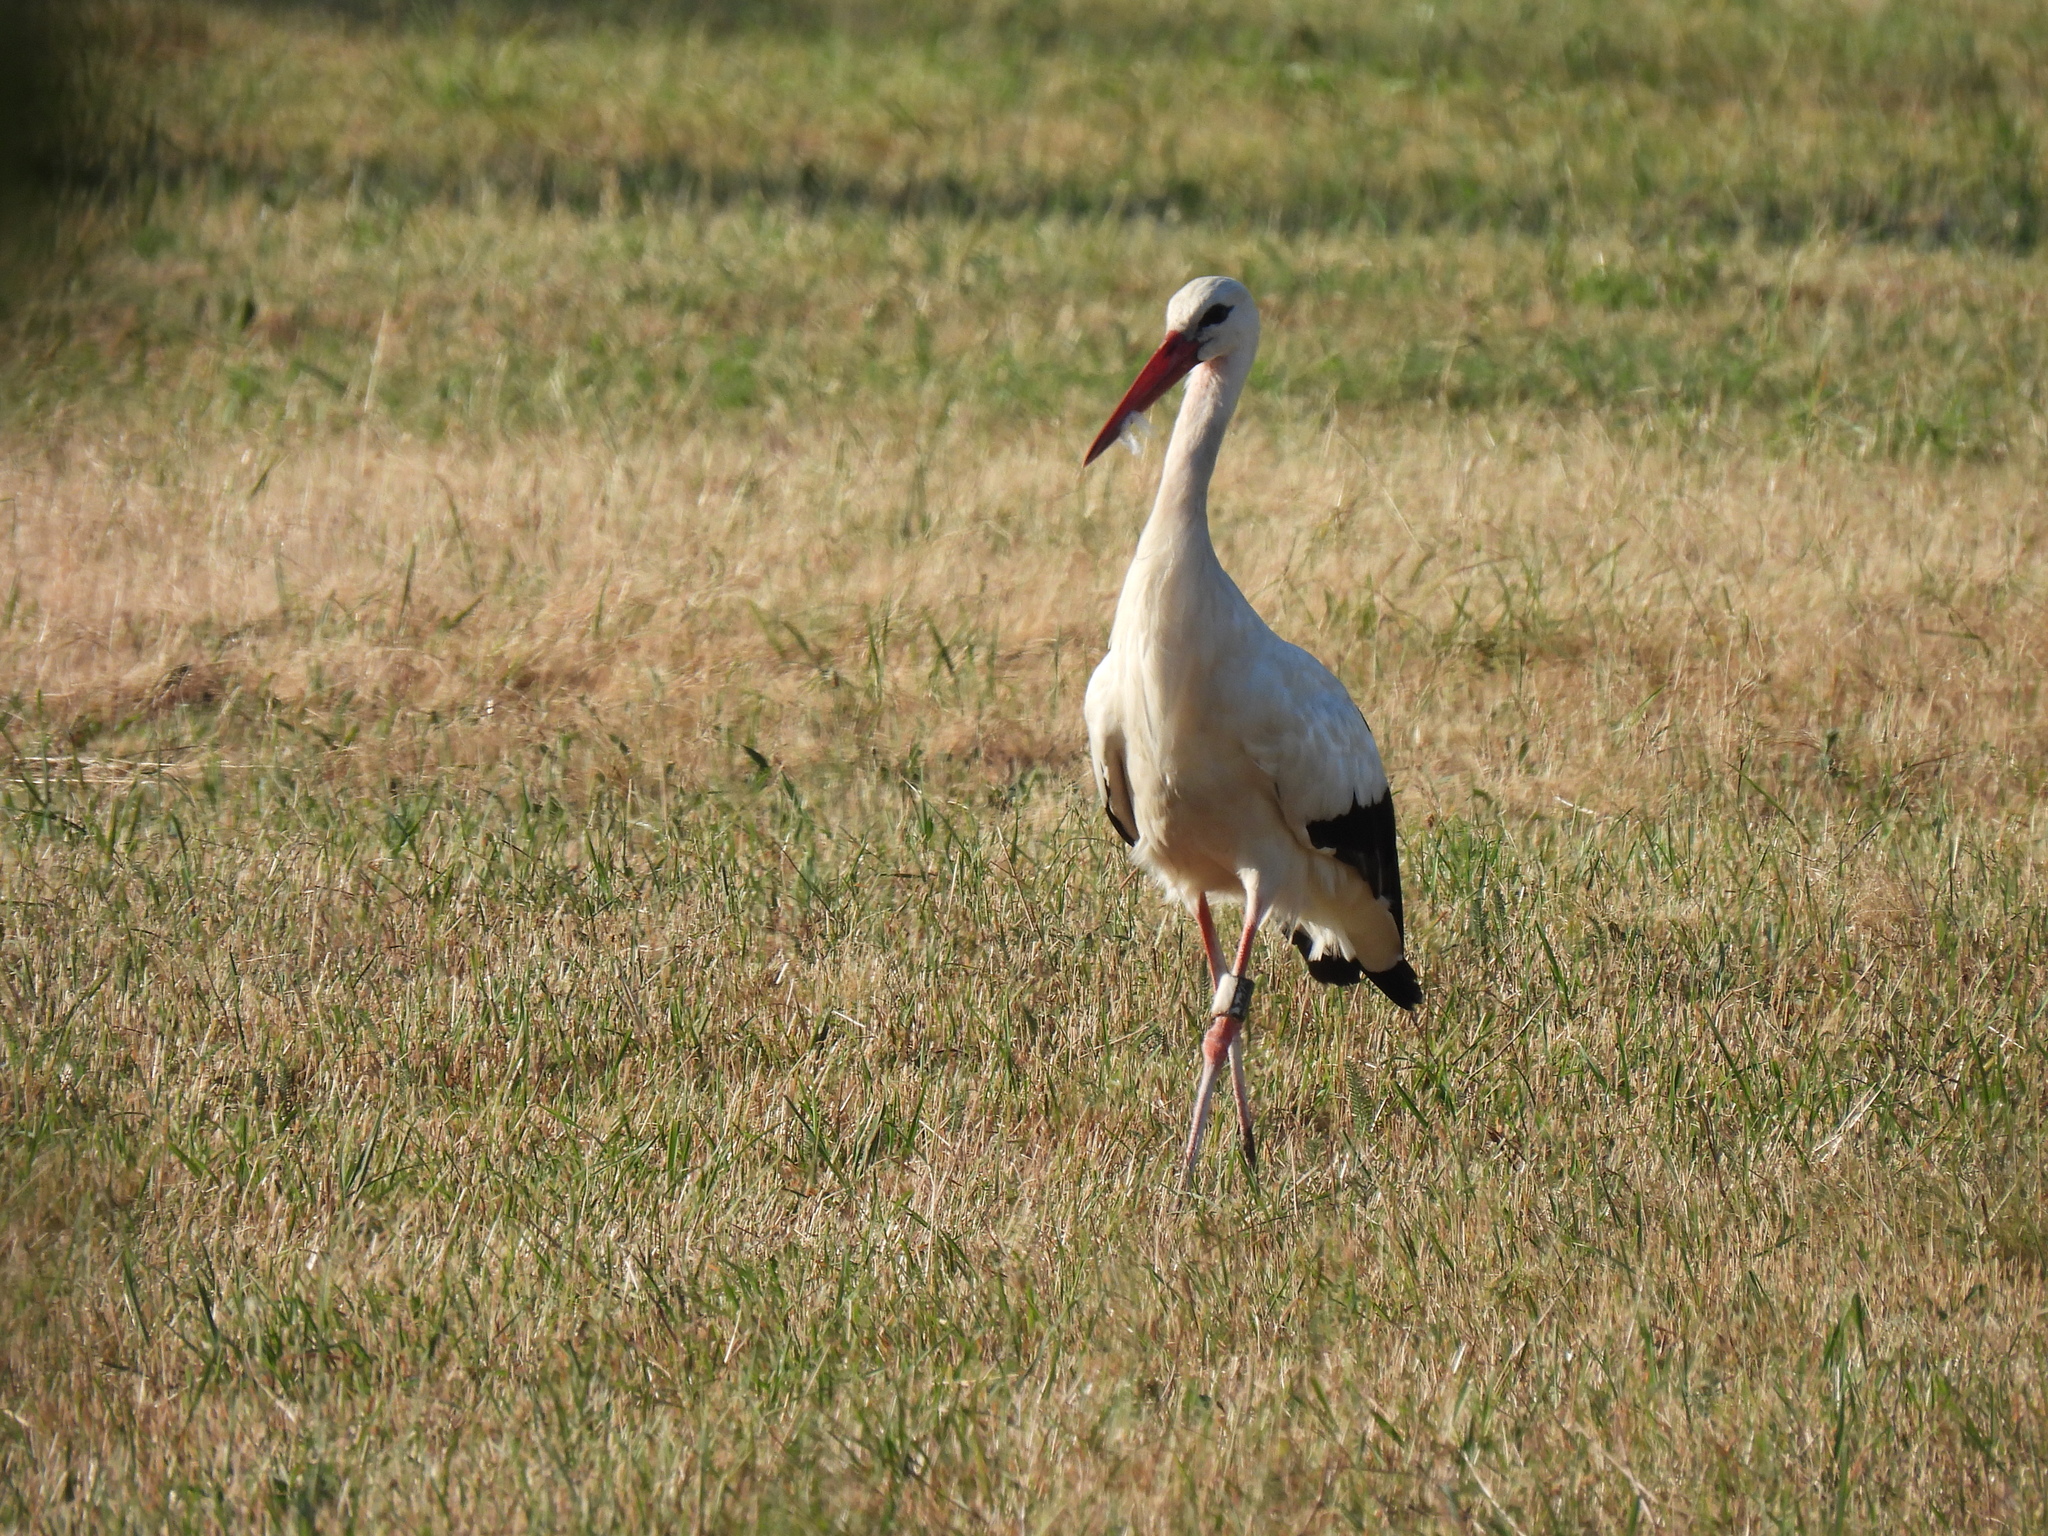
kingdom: Animalia
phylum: Chordata
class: Aves
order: Ciconiiformes
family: Ciconiidae
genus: Ciconia
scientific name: Ciconia ciconia
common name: White stork
